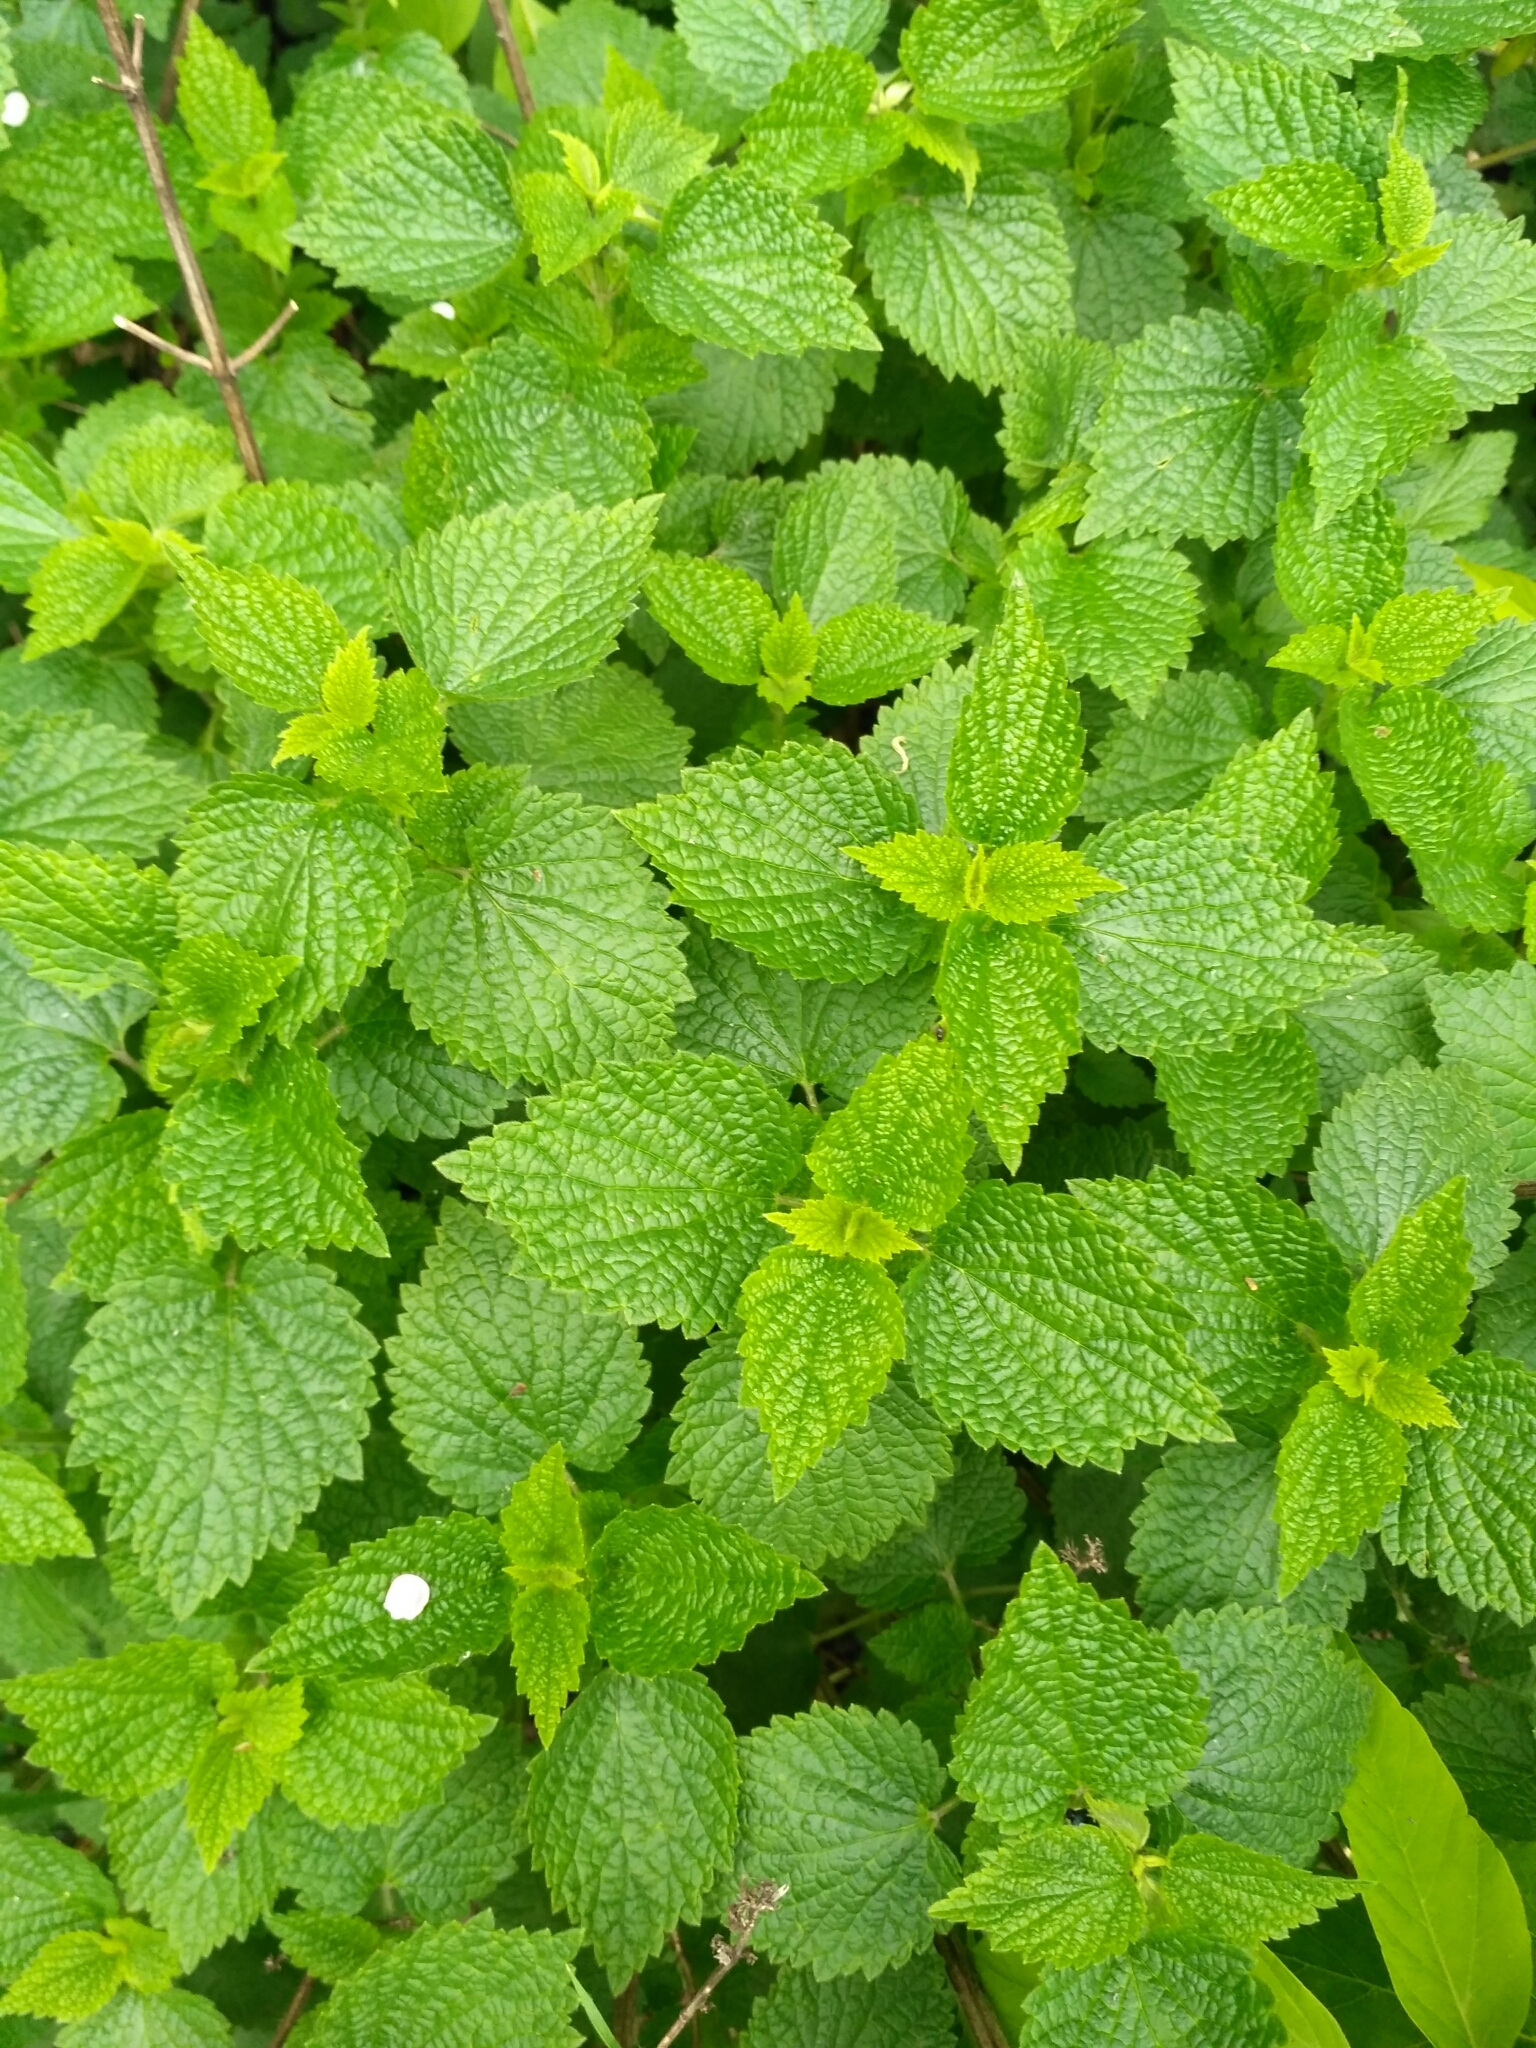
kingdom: Plantae
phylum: Tracheophyta
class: Magnoliopsida
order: Lamiales
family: Lamiaceae
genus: Ballota
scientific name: Ballota nigra
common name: Black horehound
